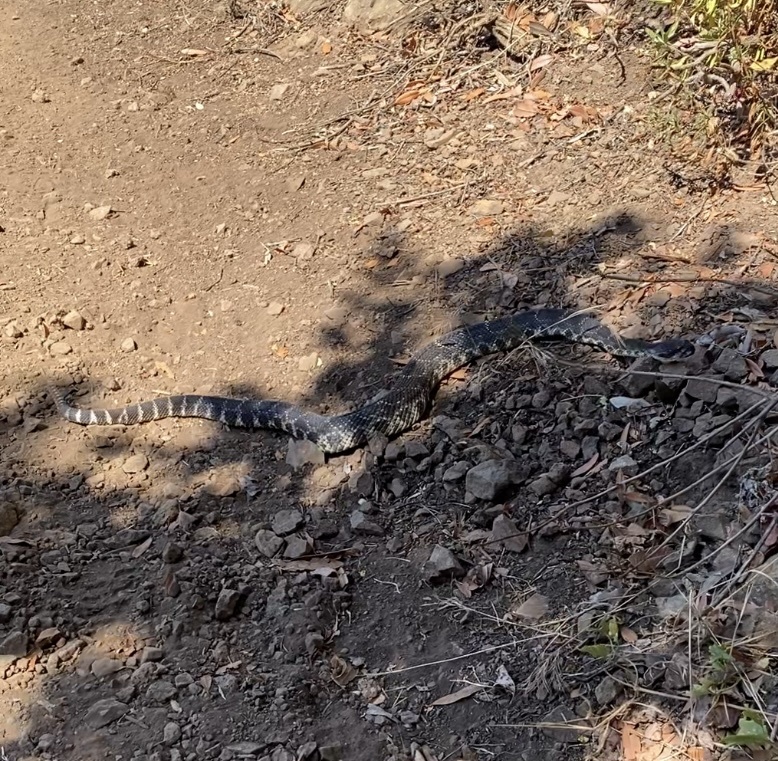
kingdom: Animalia
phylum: Chordata
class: Squamata
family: Viperidae
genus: Crotalus
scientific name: Crotalus oreganus
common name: Abyssus
